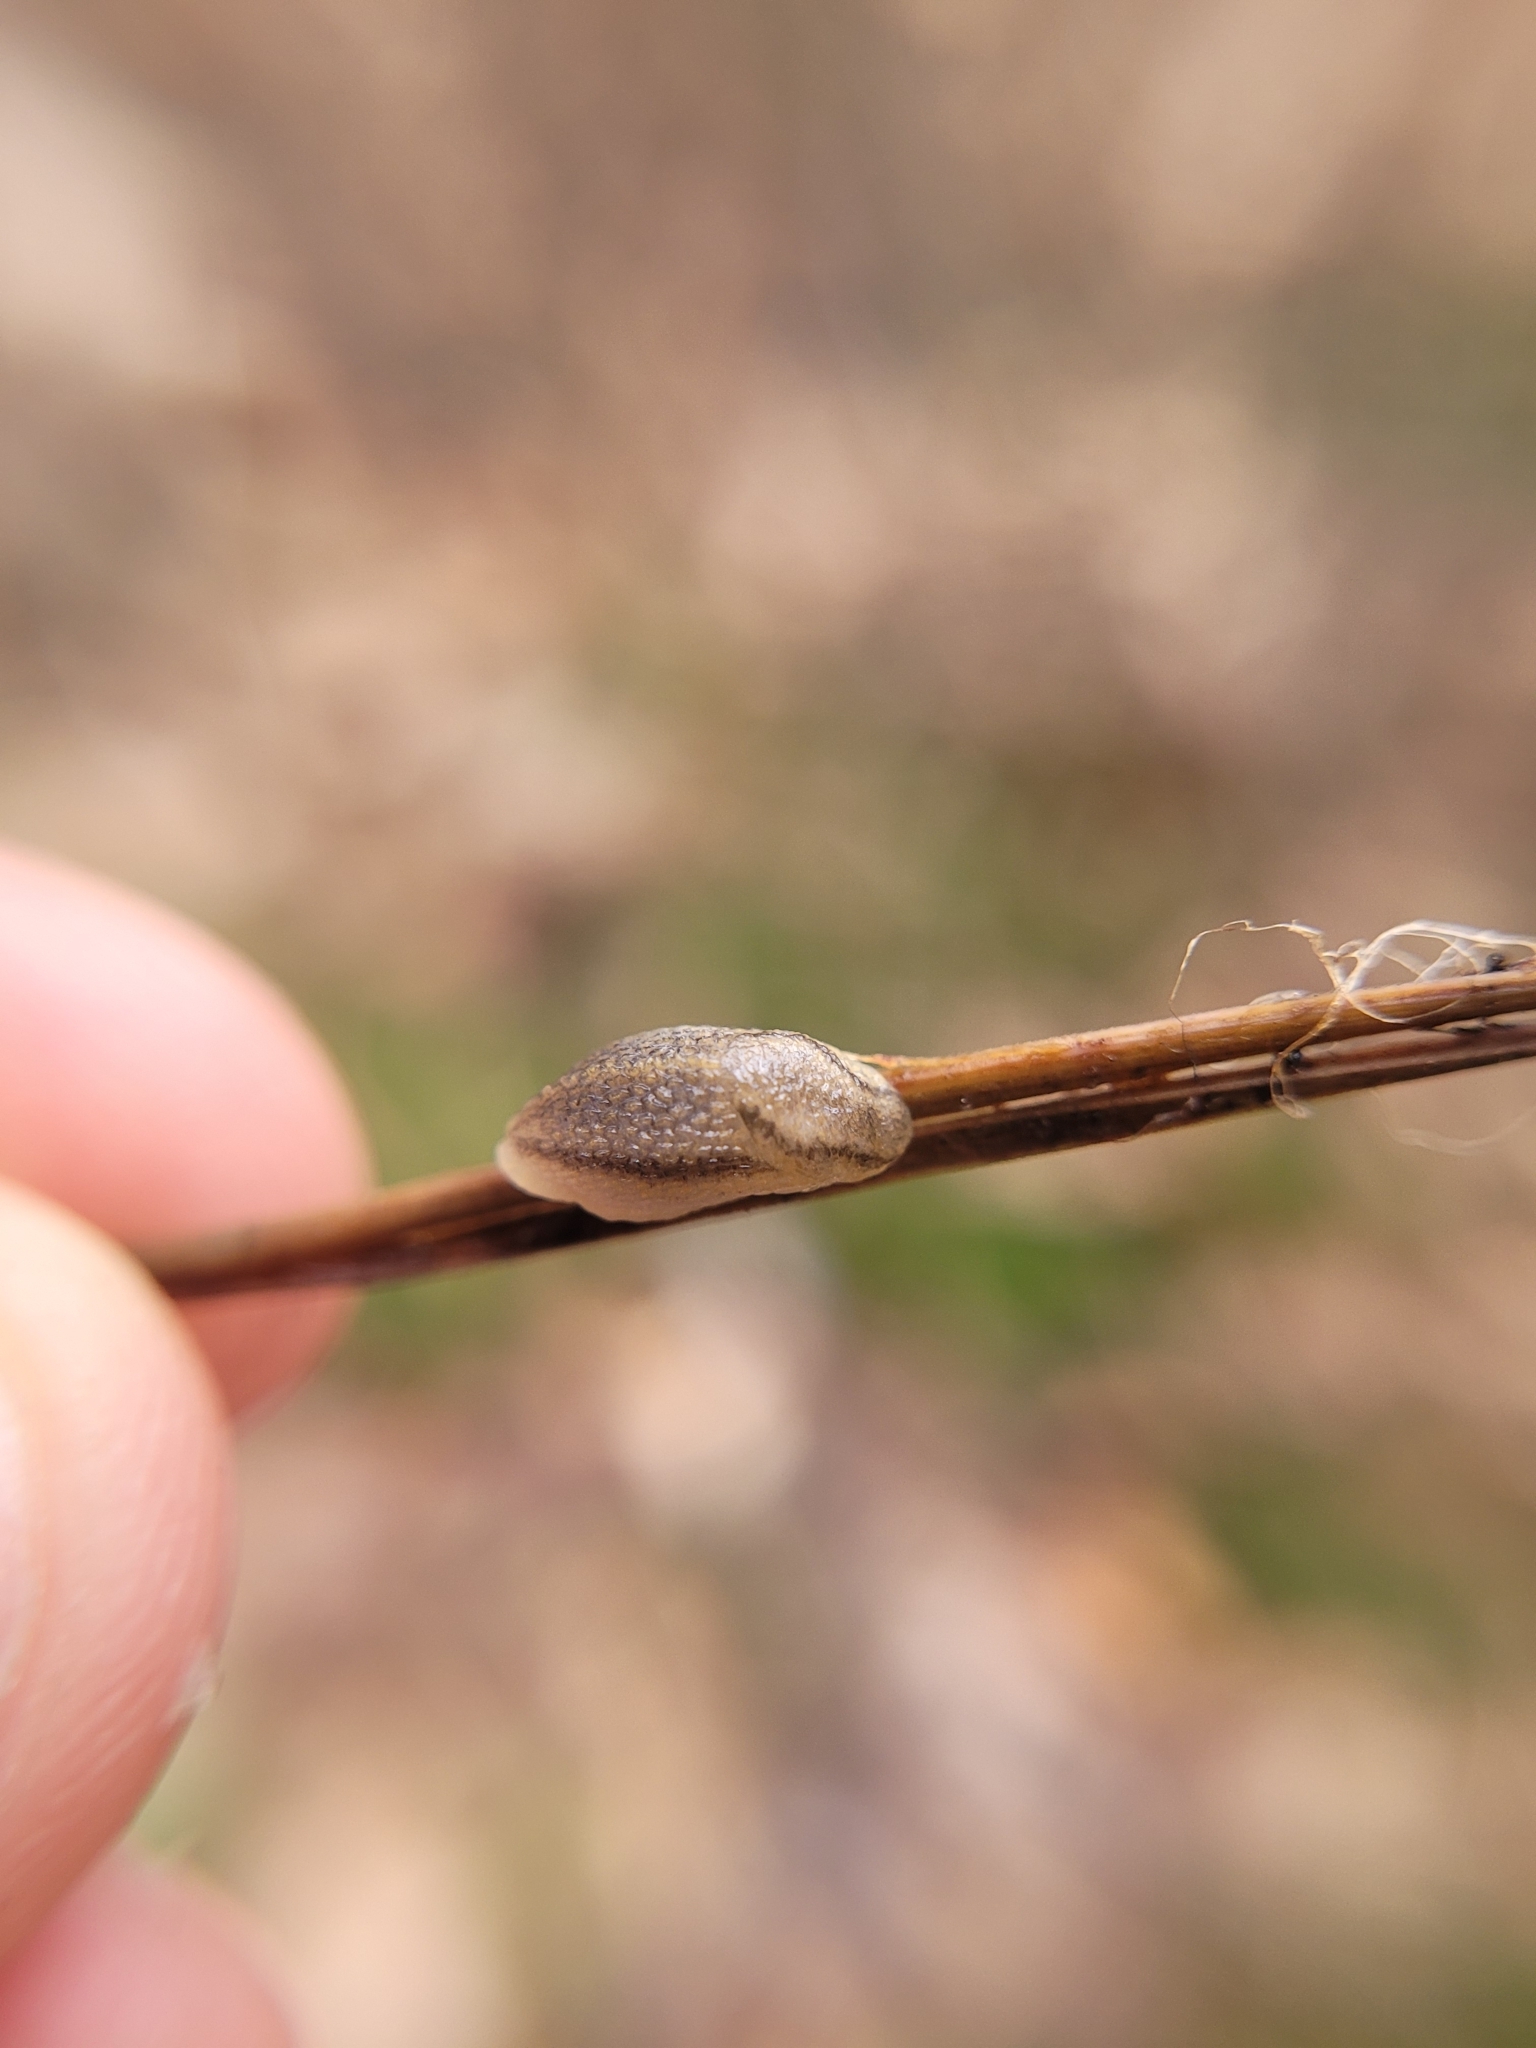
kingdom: Animalia
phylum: Mollusca
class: Gastropoda
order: Stylommatophora
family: Arionidae
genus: Arion
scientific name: Arion fasciatus
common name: Orange-banded arion
